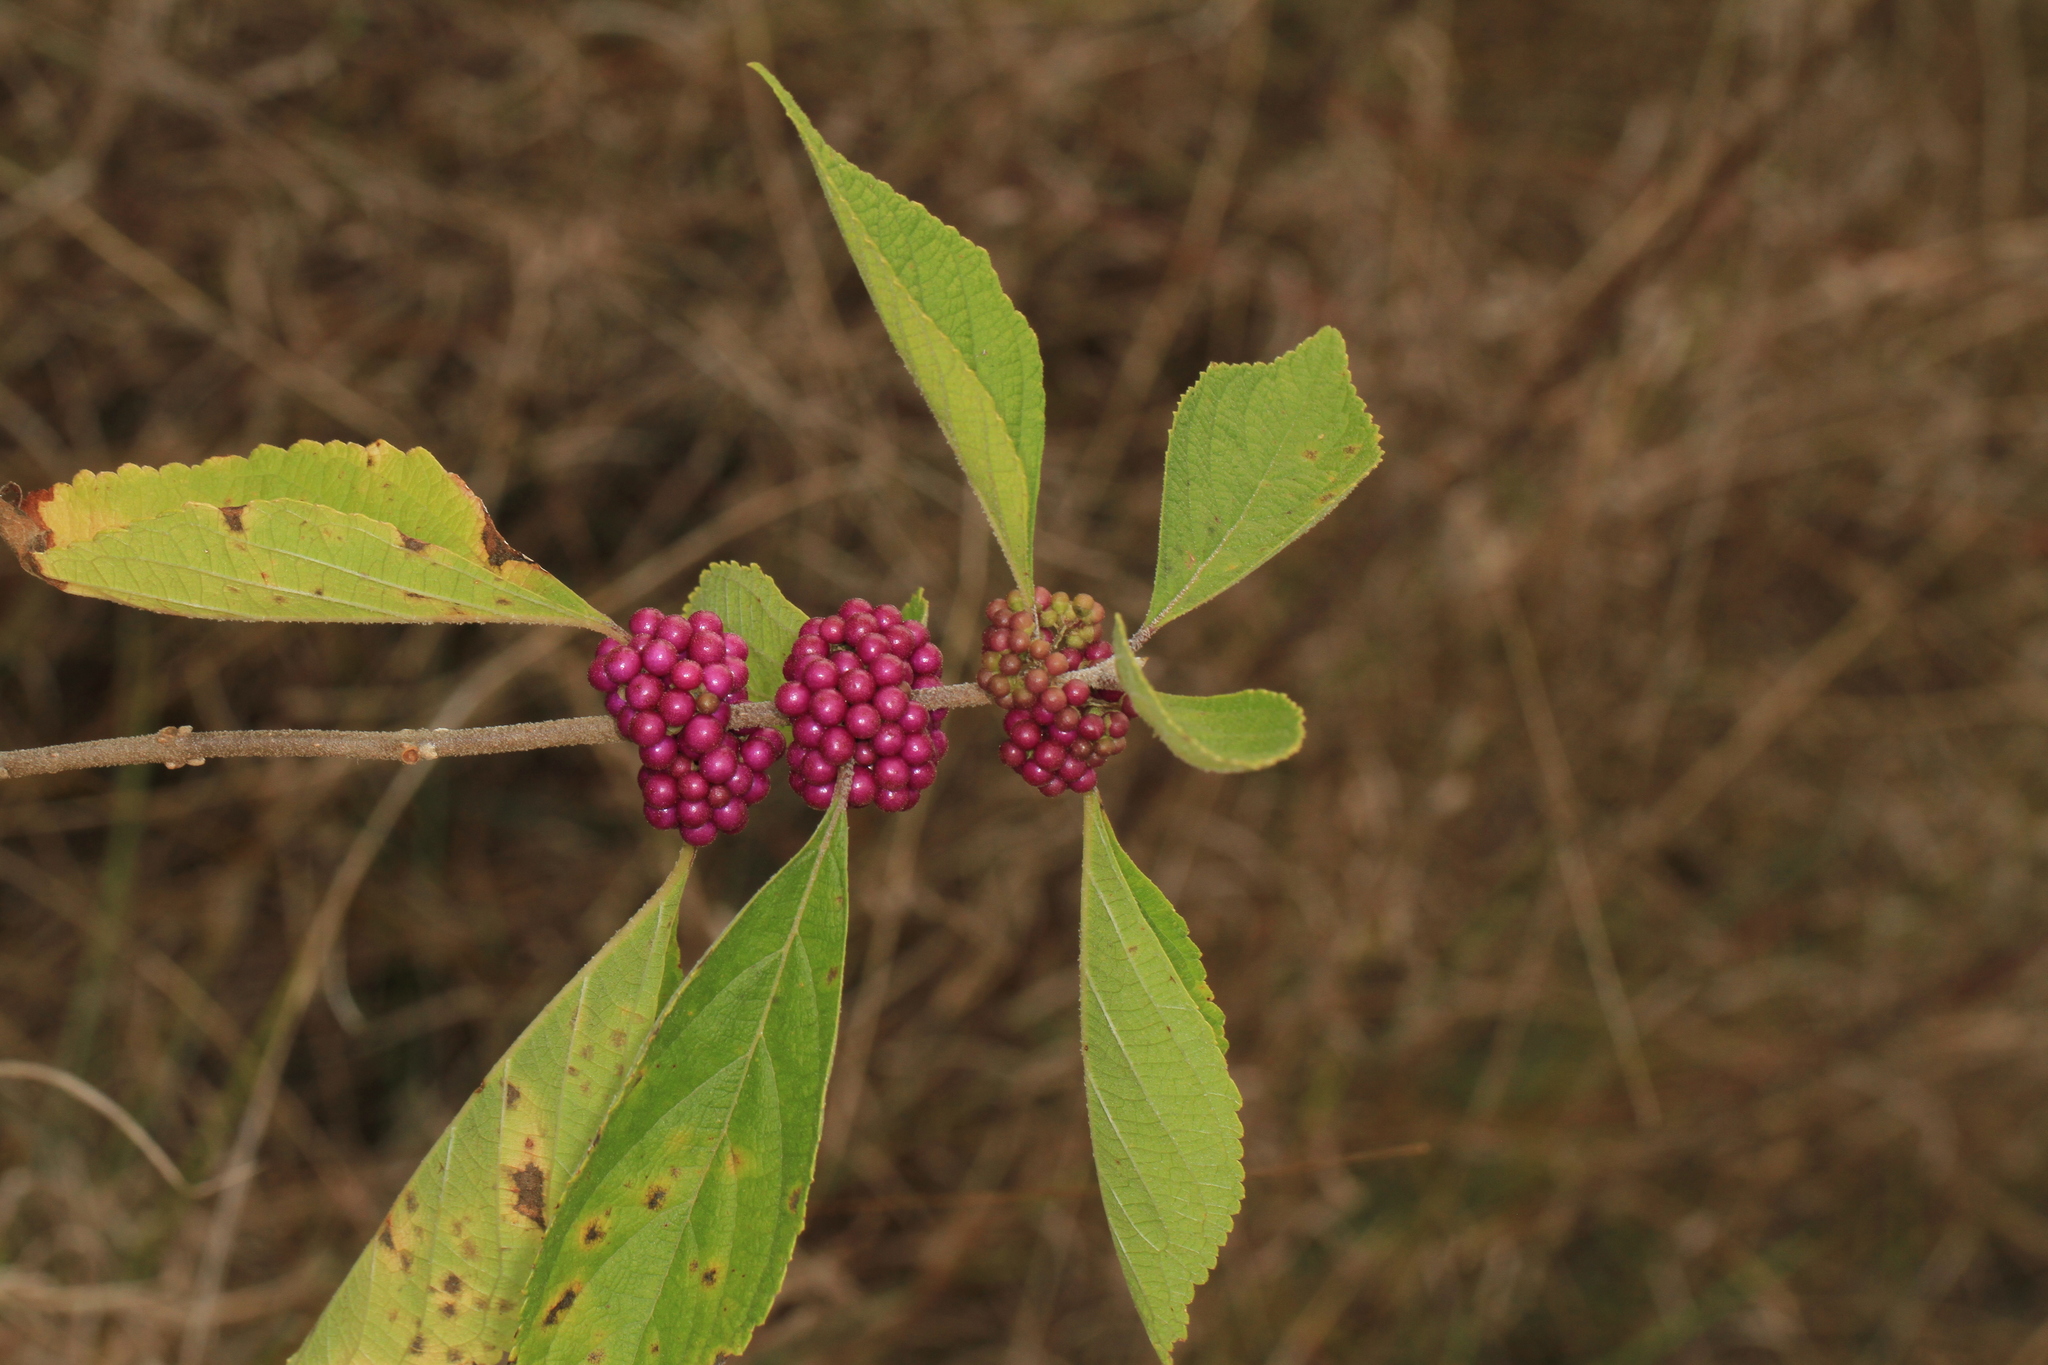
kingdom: Plantae
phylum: Tracheophyta
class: Magnoliopsida
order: Lamiales
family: Lamiaceae
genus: Callicarpa
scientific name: Callicarpa americana
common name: American beautyberry
